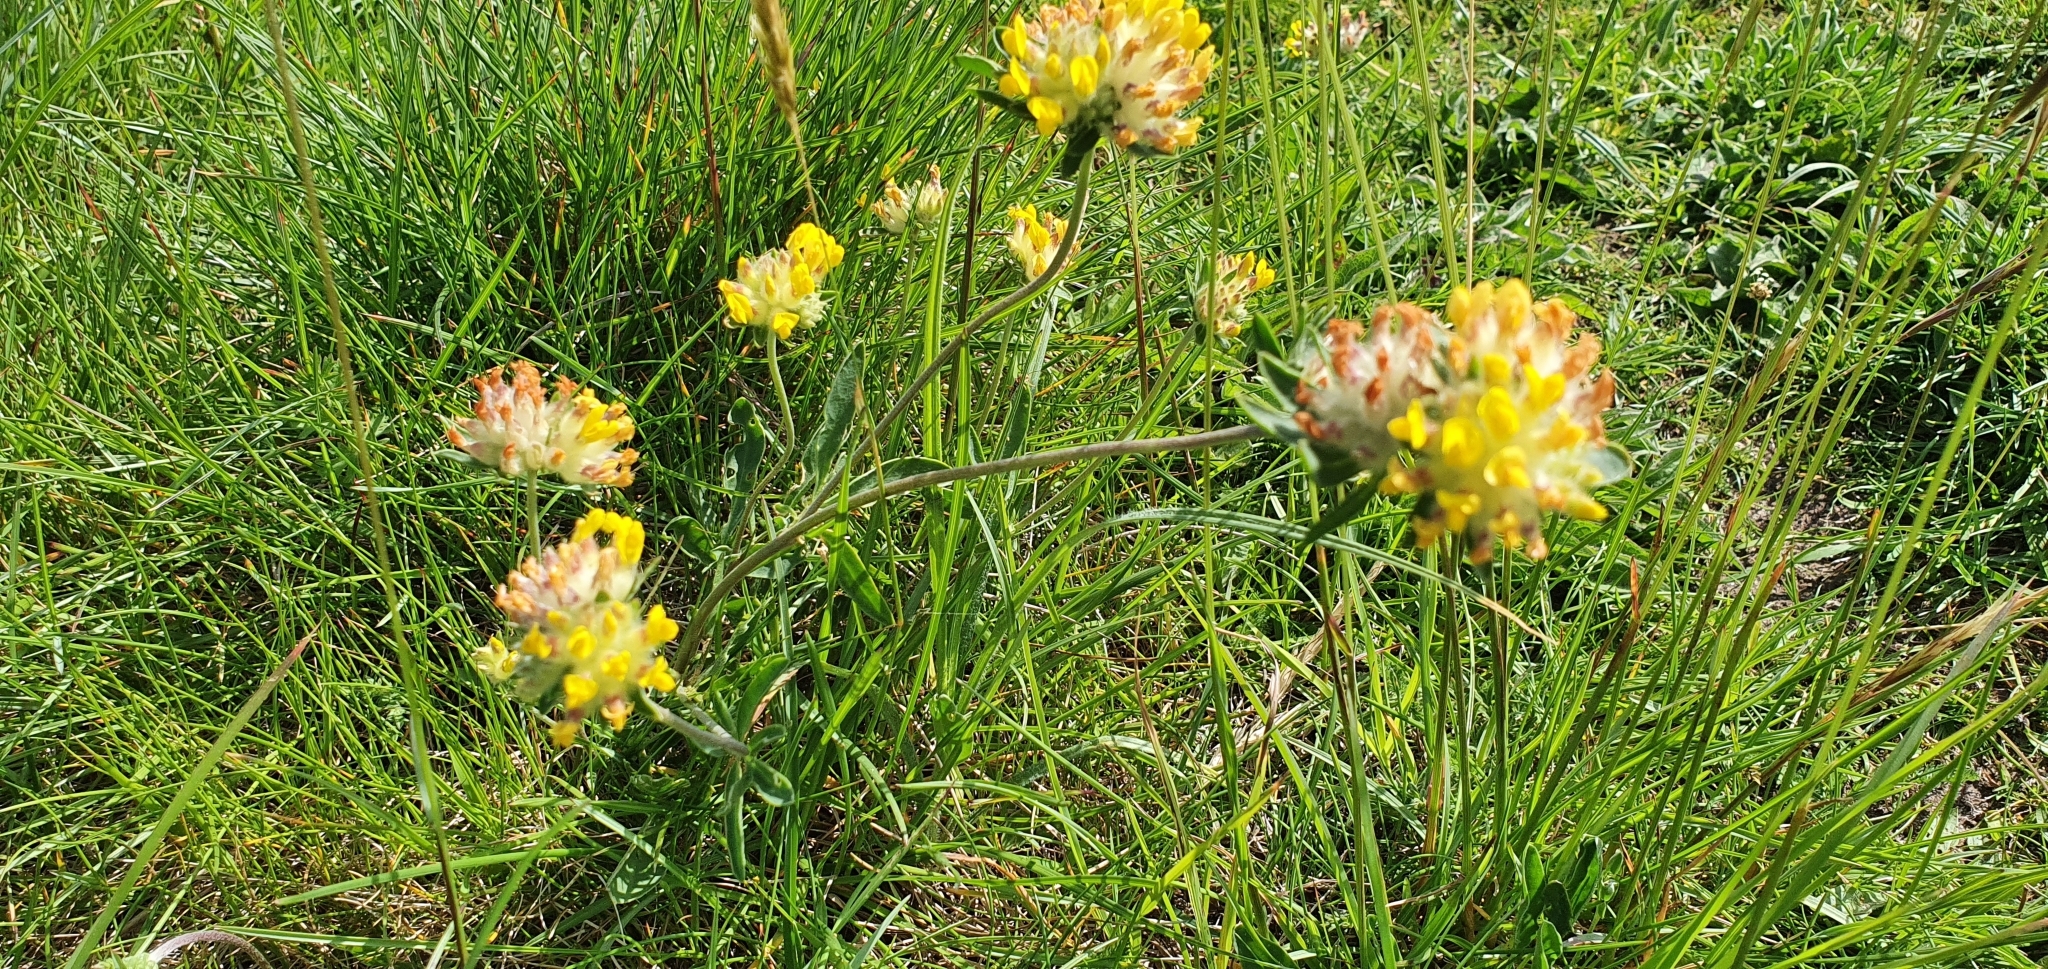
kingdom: Plantae
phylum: Tracheophyta
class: Magnoliopsida
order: Fabales
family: Fabaceae
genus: Anthyllis
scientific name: Anthyllis vulneraria
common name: Kidney vetch
